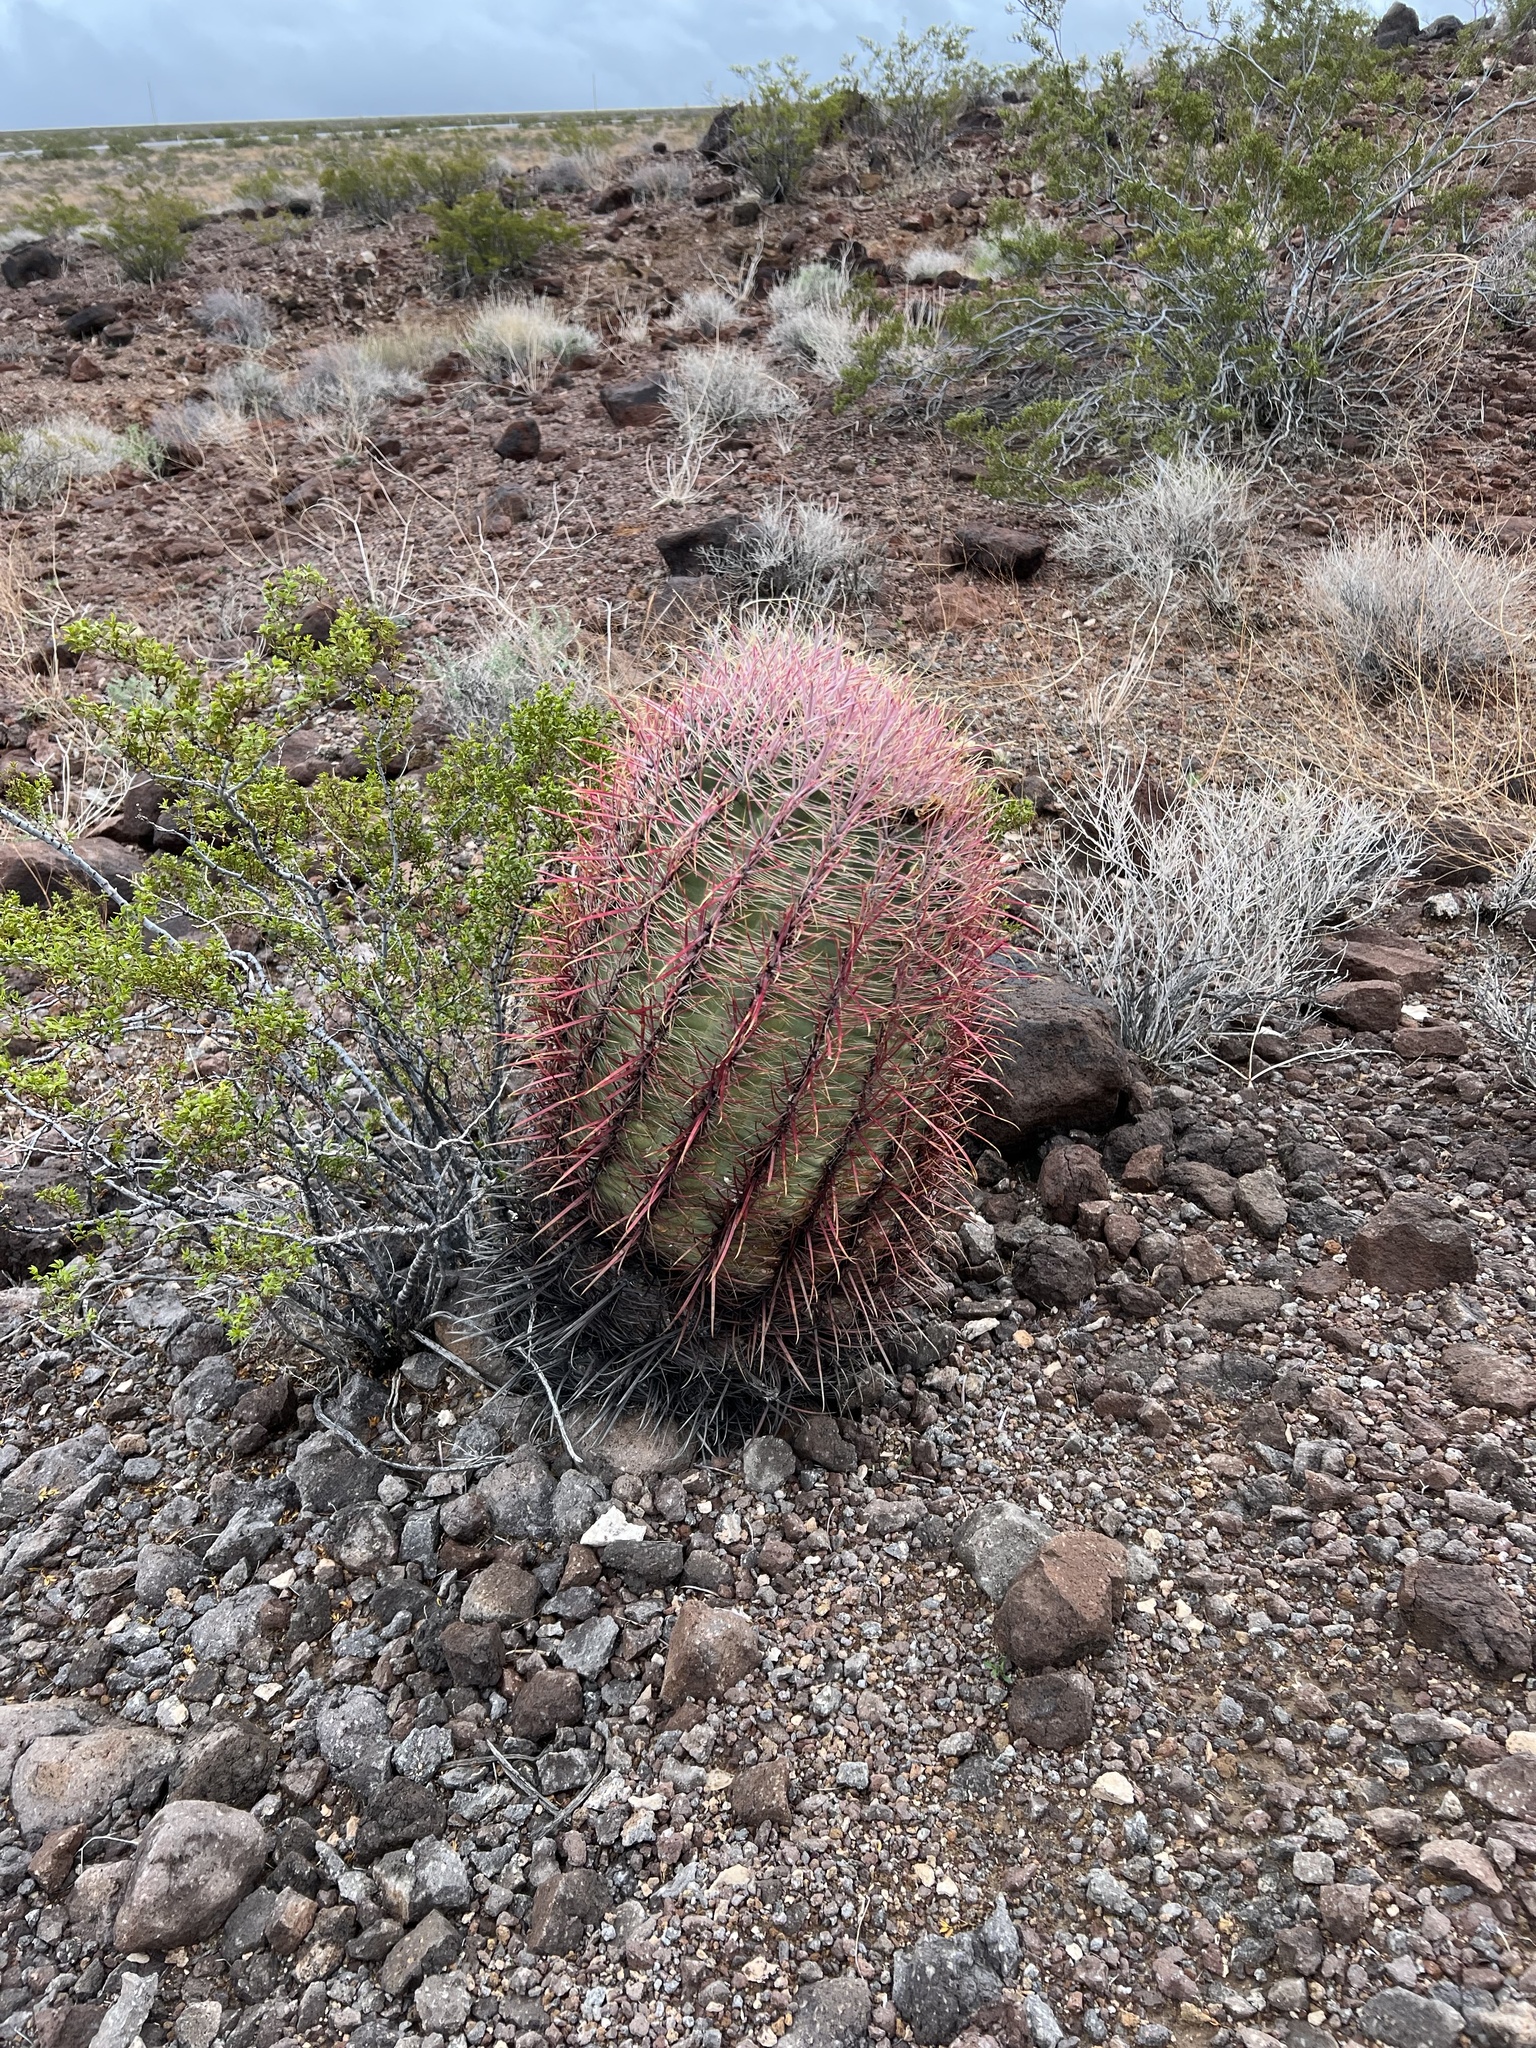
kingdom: Plantae
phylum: Tracheophyta
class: Magnoliopsida
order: Caryophyllales
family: Cactaceae
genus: Ferocactus
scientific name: Ferocactus cylindraceus
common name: California barrel cactus
